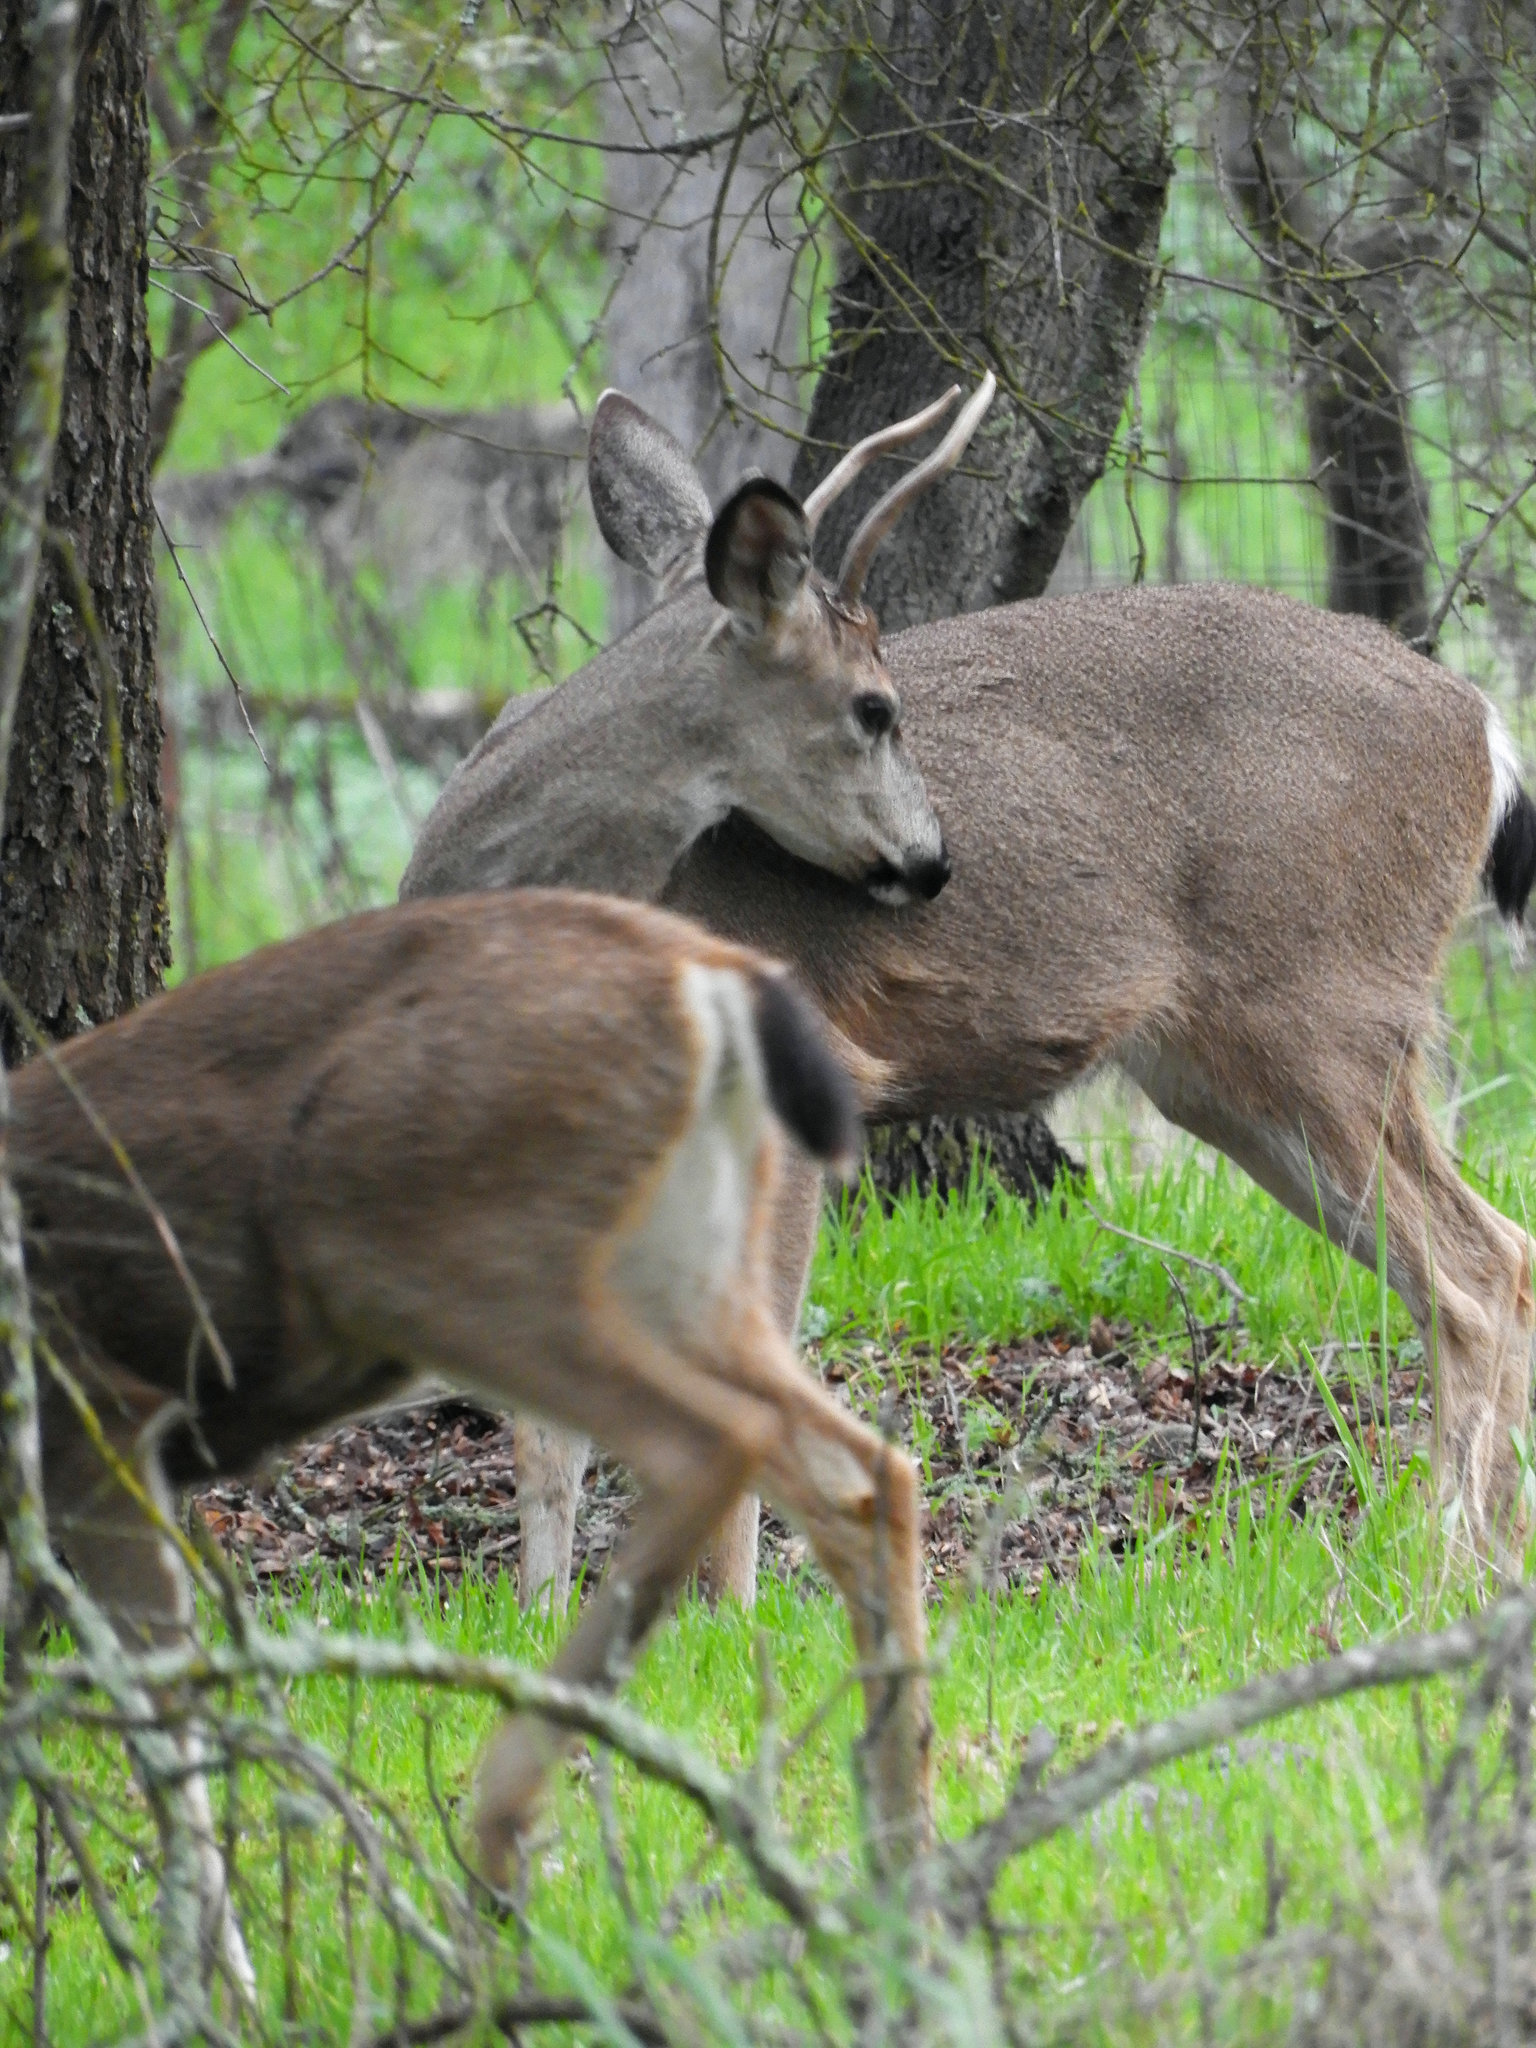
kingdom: Animalia
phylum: Chordata
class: Mammalia
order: Artiodactyla
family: Cervidae
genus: Odocoileus
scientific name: Odocoileus hemionus
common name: Mule deer
